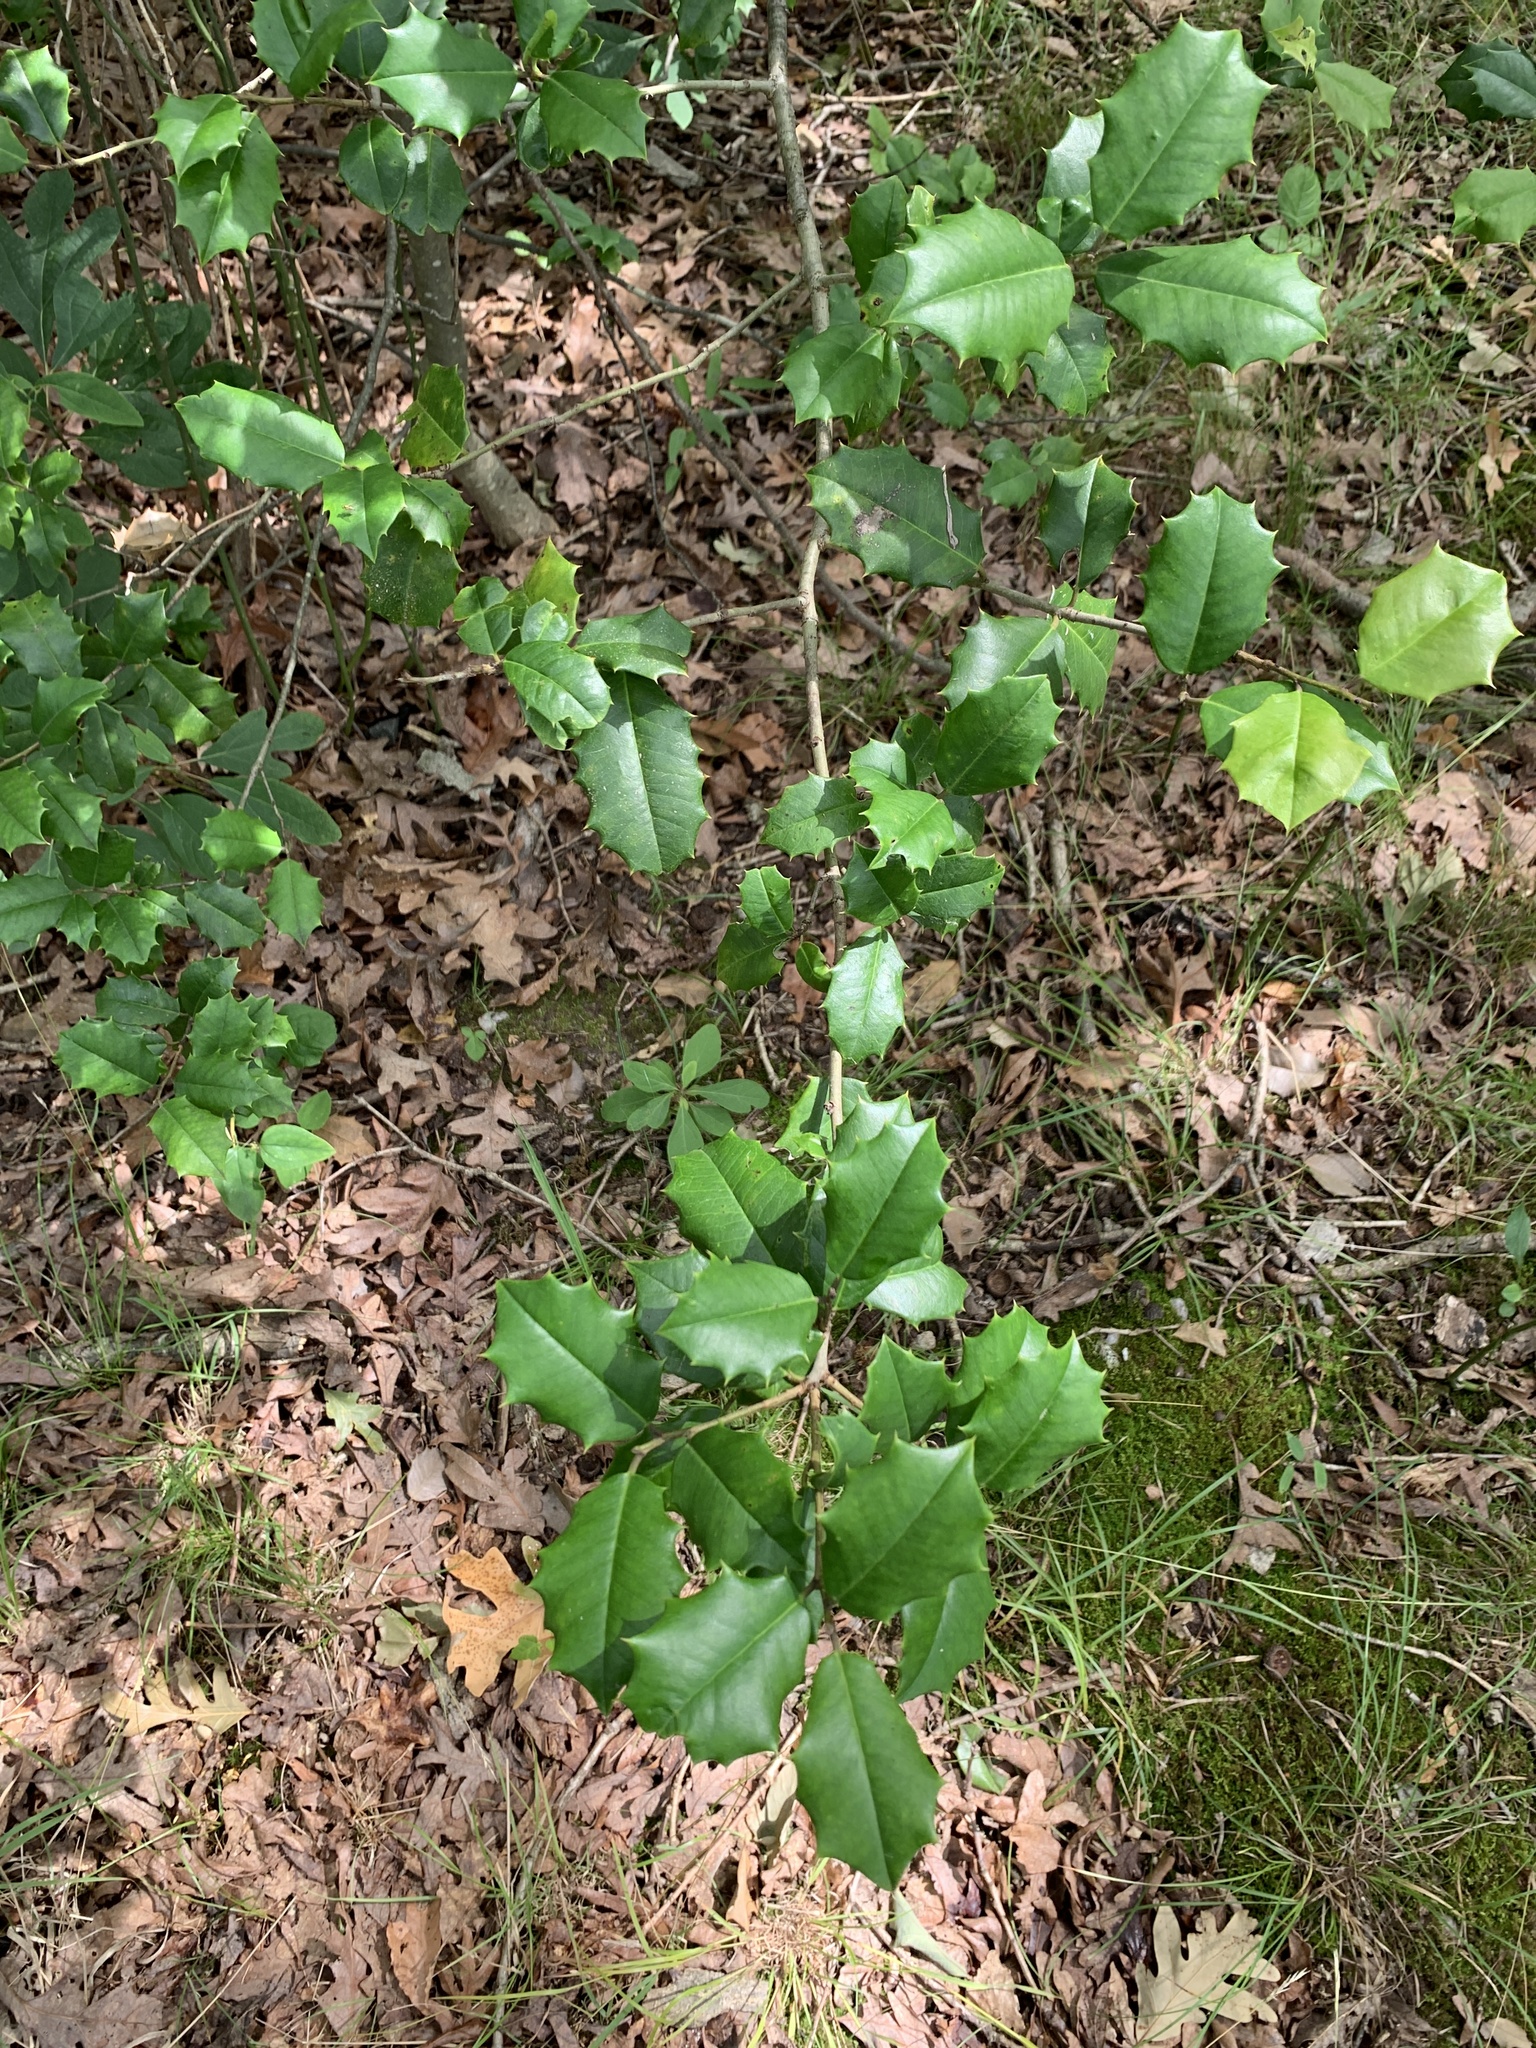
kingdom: Plantae
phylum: Tracheophyta
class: Magnoliopsida
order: Aquifoliales
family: Aquifoliaceae
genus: Ilex
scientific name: Ilex opaca
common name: American holly
